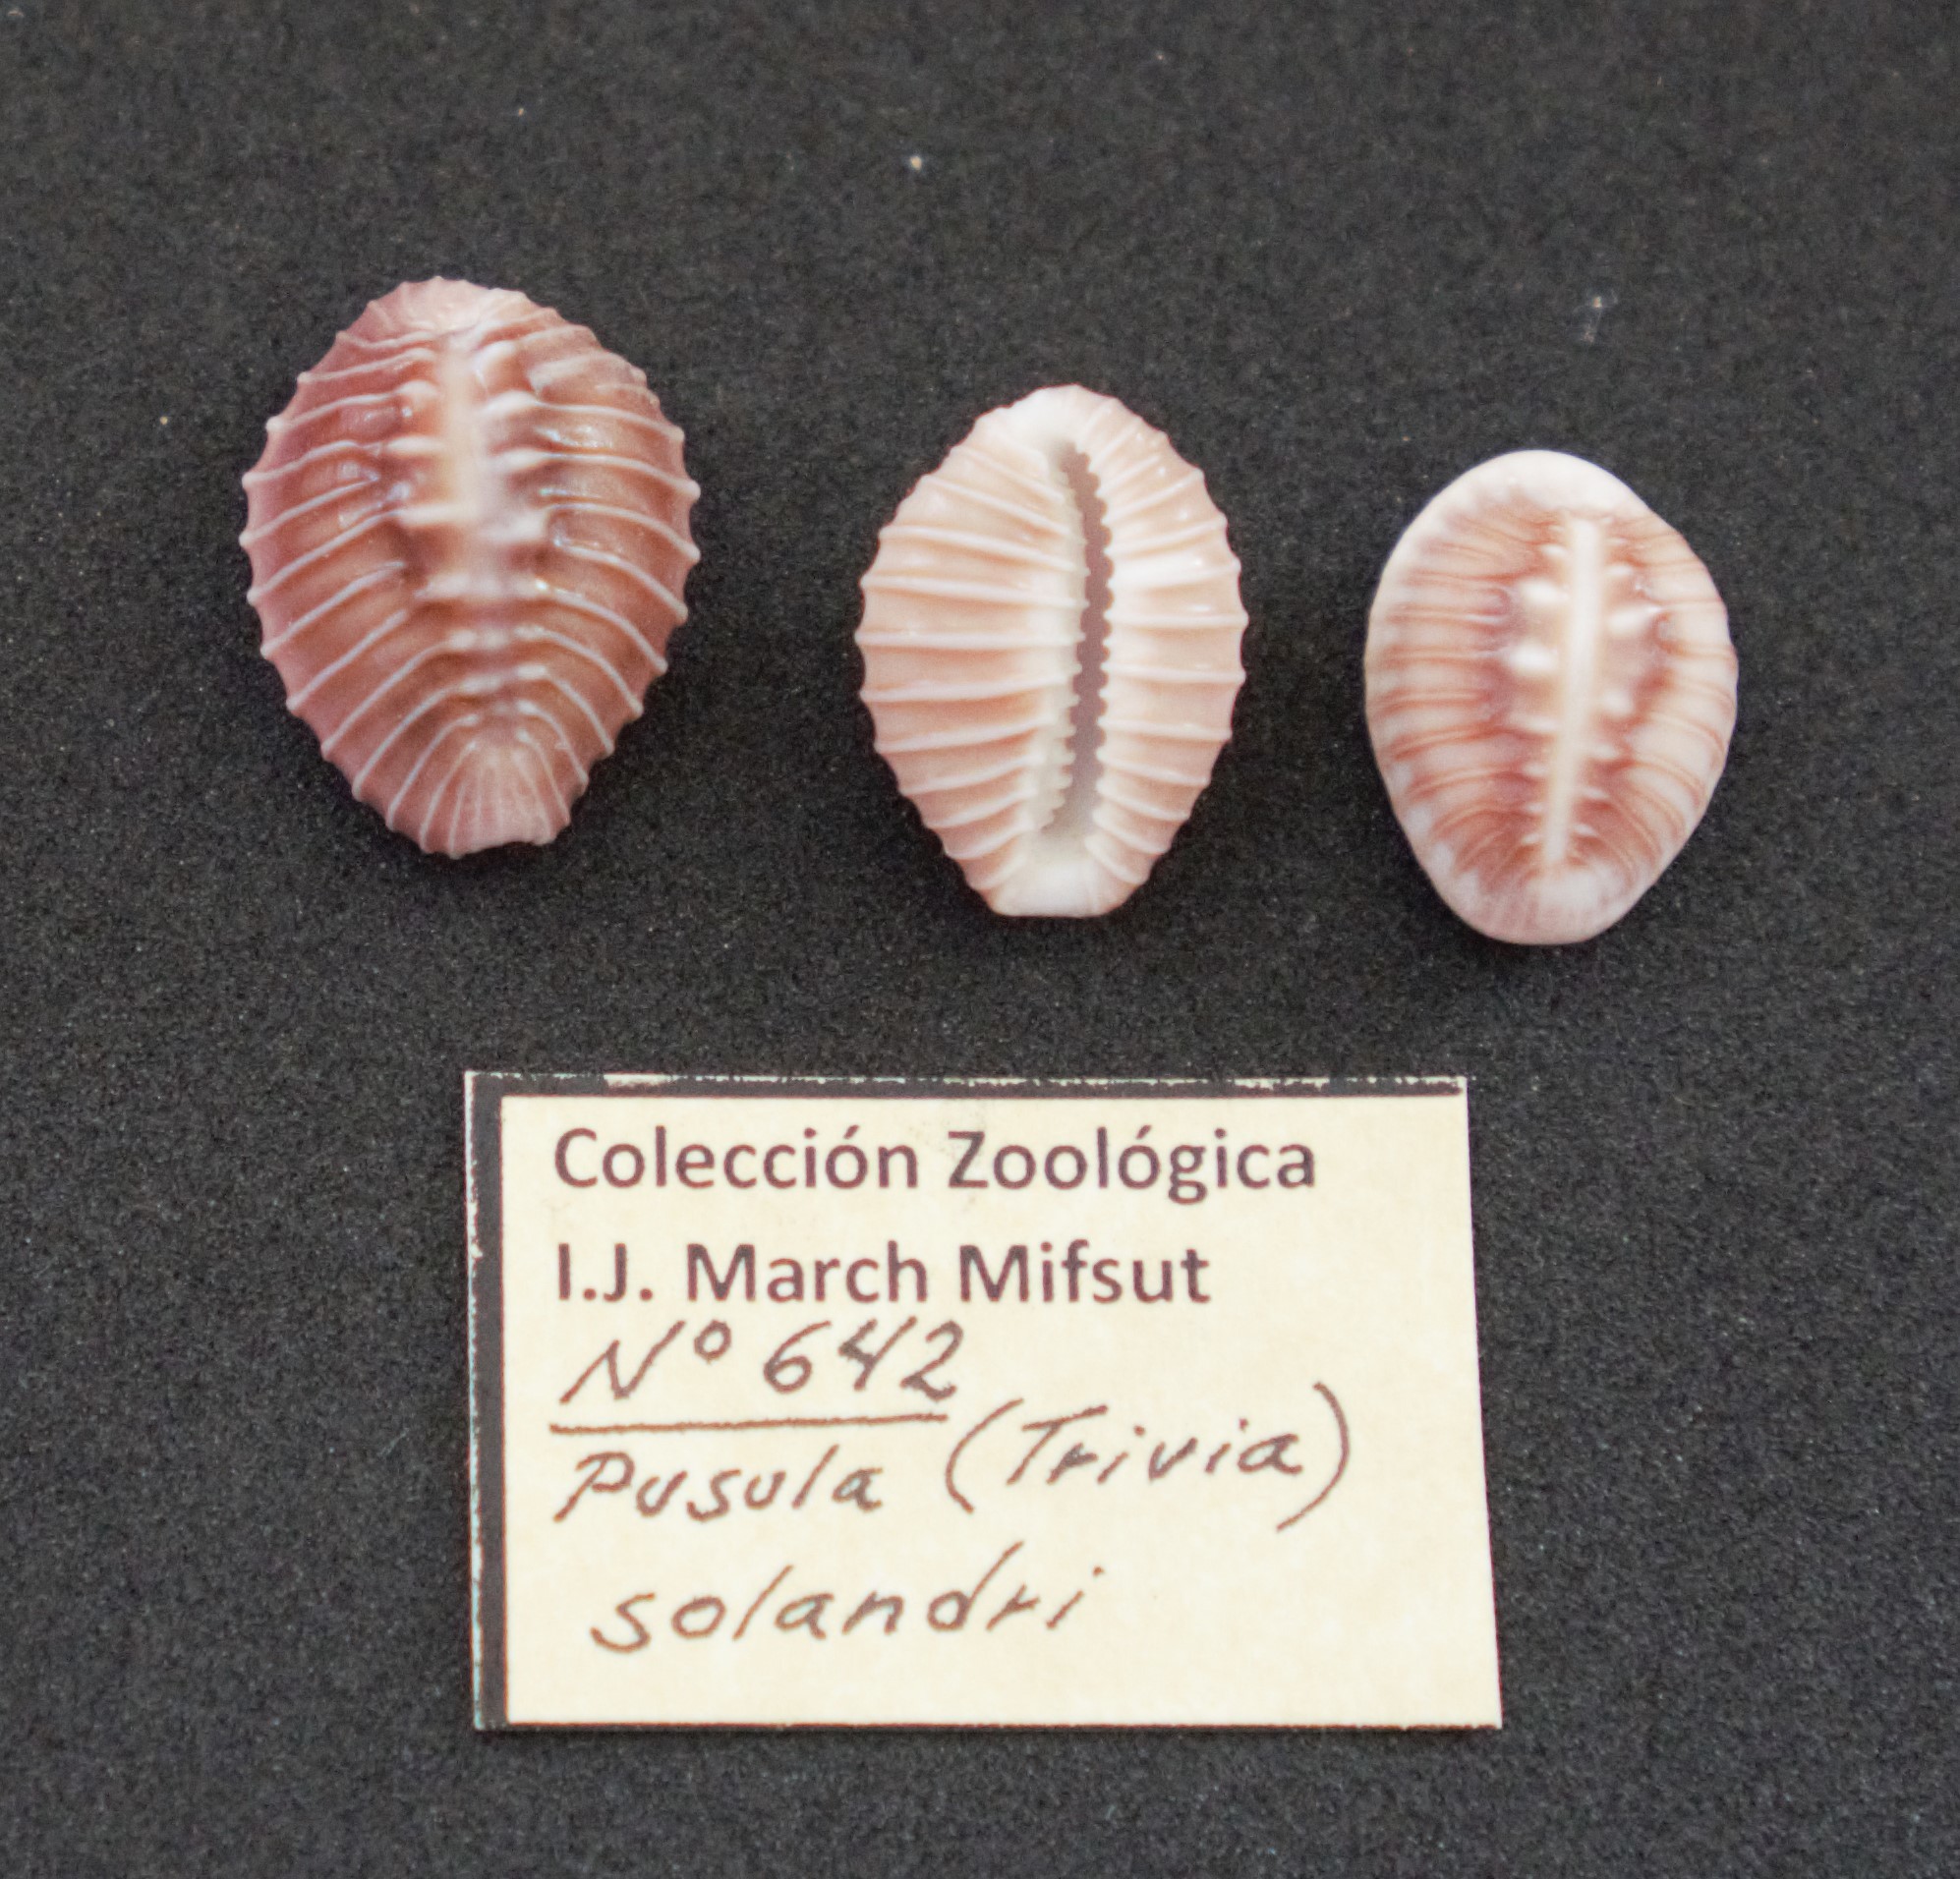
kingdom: Animalia
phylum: Mollusca
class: Gastropoda
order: Littorinimorpha
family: Triviidae
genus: Pusula
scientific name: Pusula solandri
